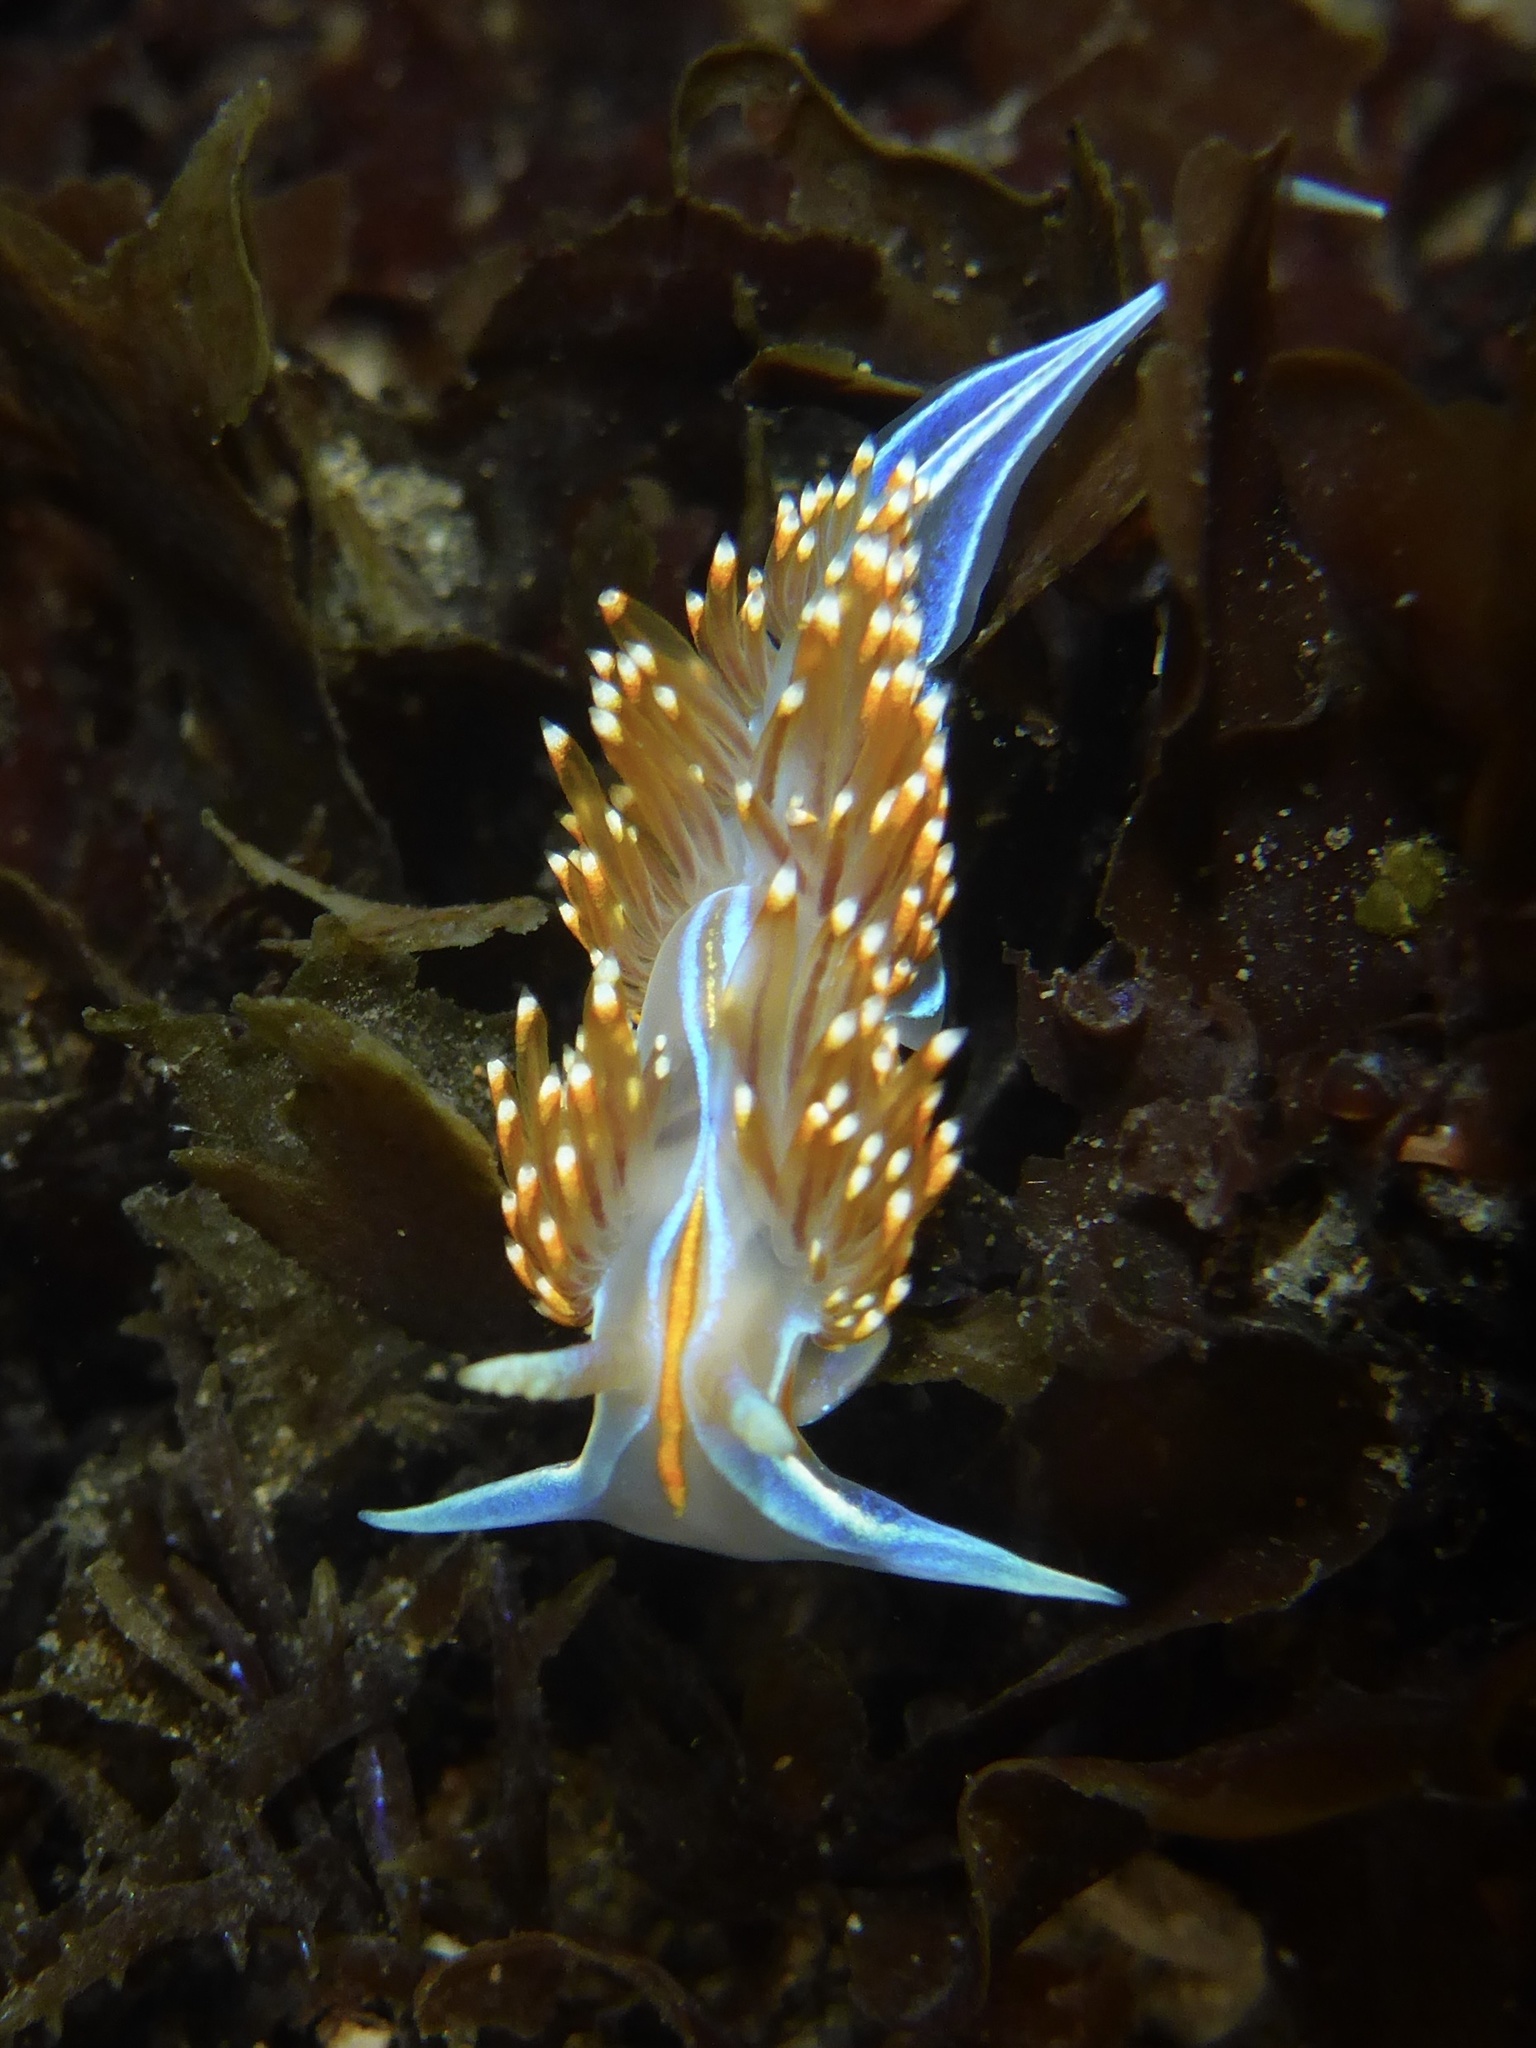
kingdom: Animalia
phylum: Mollusca
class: Gastropoda
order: Nudibranchia
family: Myrrhinidae
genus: Hermissenda
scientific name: Hermissenda opalescens
